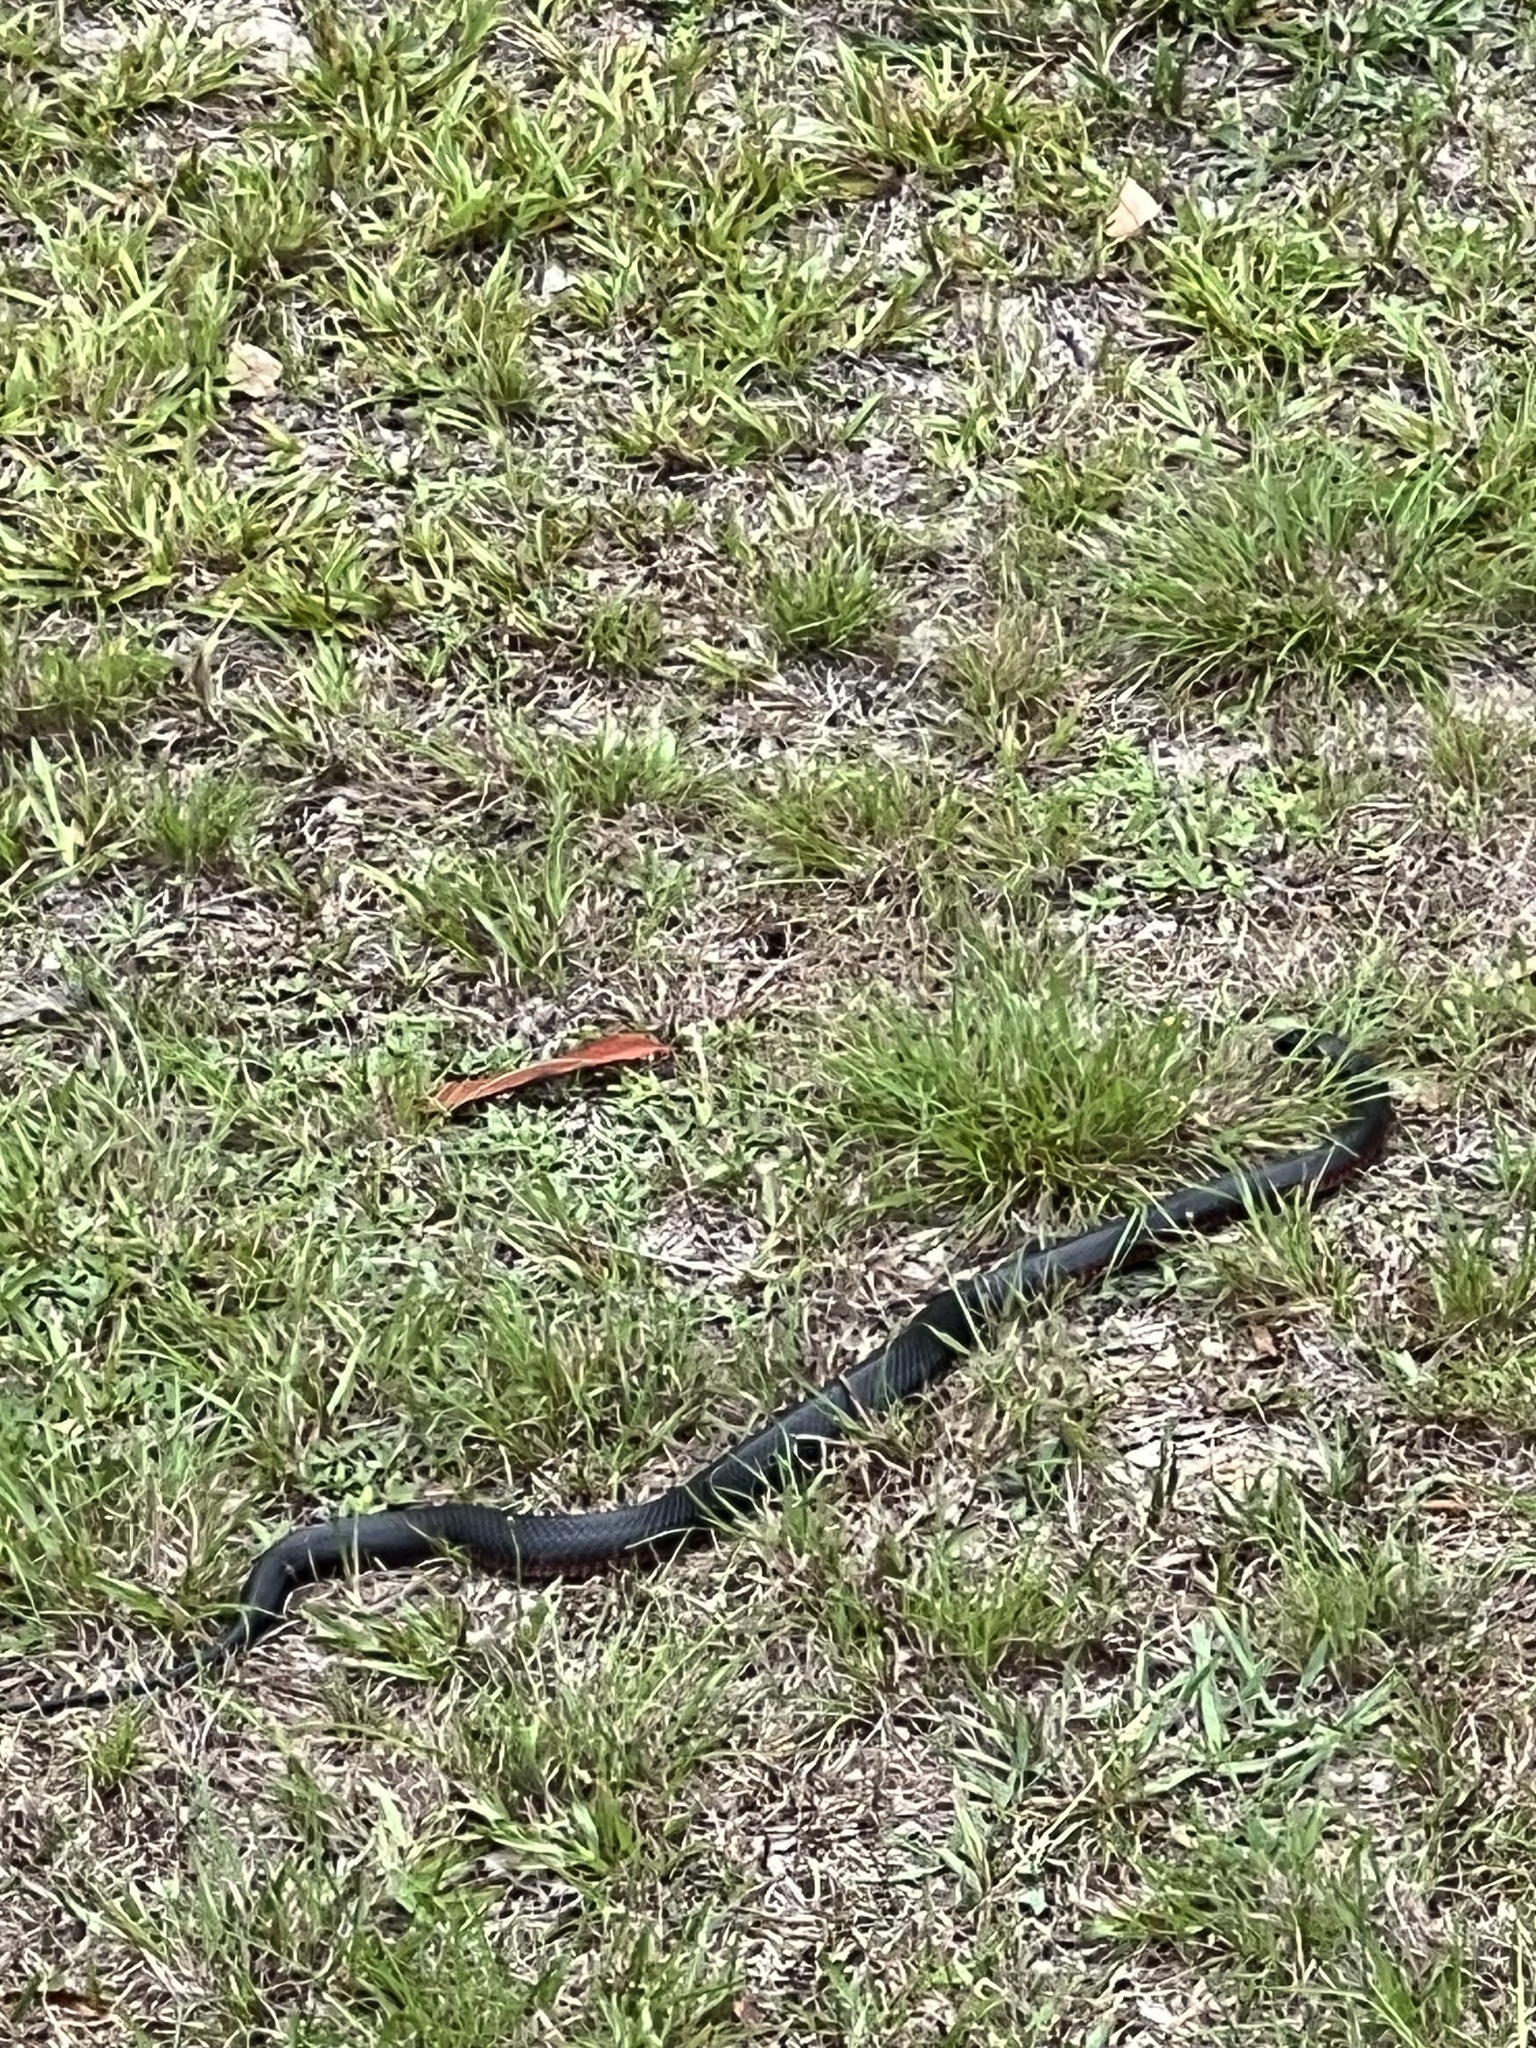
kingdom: Animalia
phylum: Chordata
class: Squamata
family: Elapidae
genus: Pseudechis
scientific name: Pseudechis porphyriacus
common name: Australian black snake
